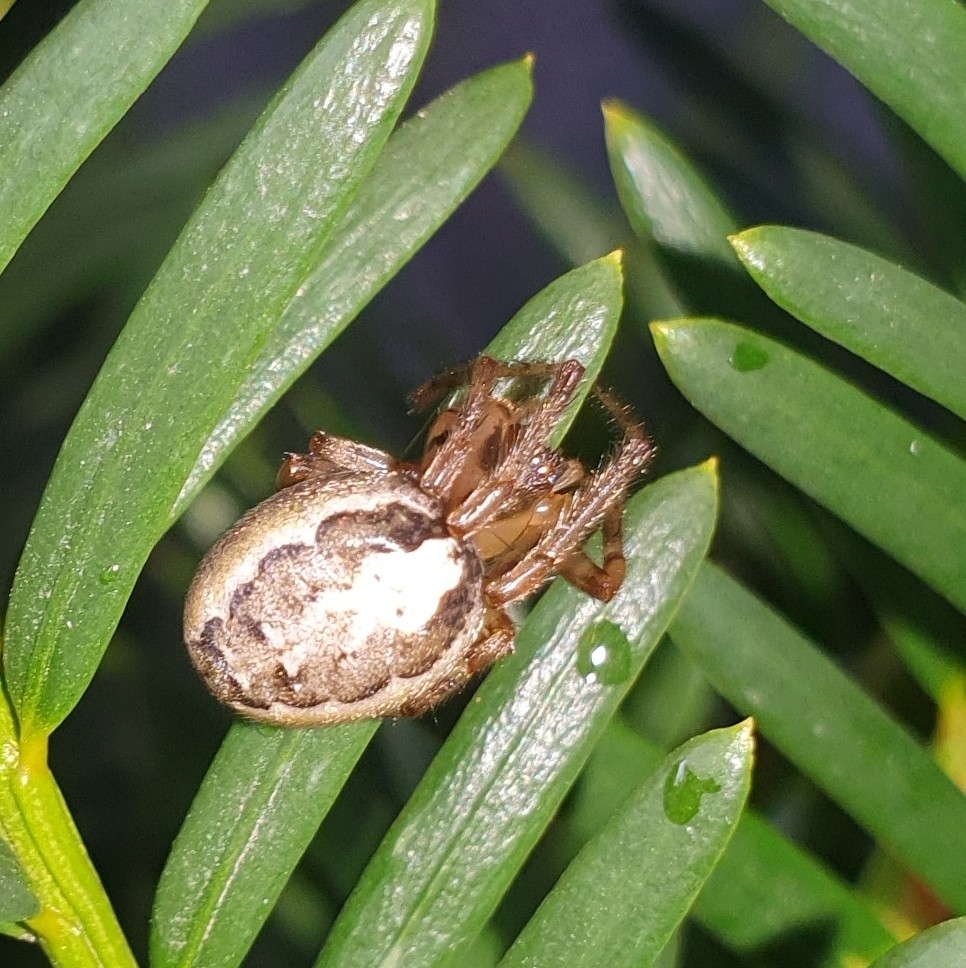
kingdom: Animalia
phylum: Arthropoda
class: Arachnida
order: Araneae
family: Araneidae
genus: Zygiella
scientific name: Zygiella x-notata
